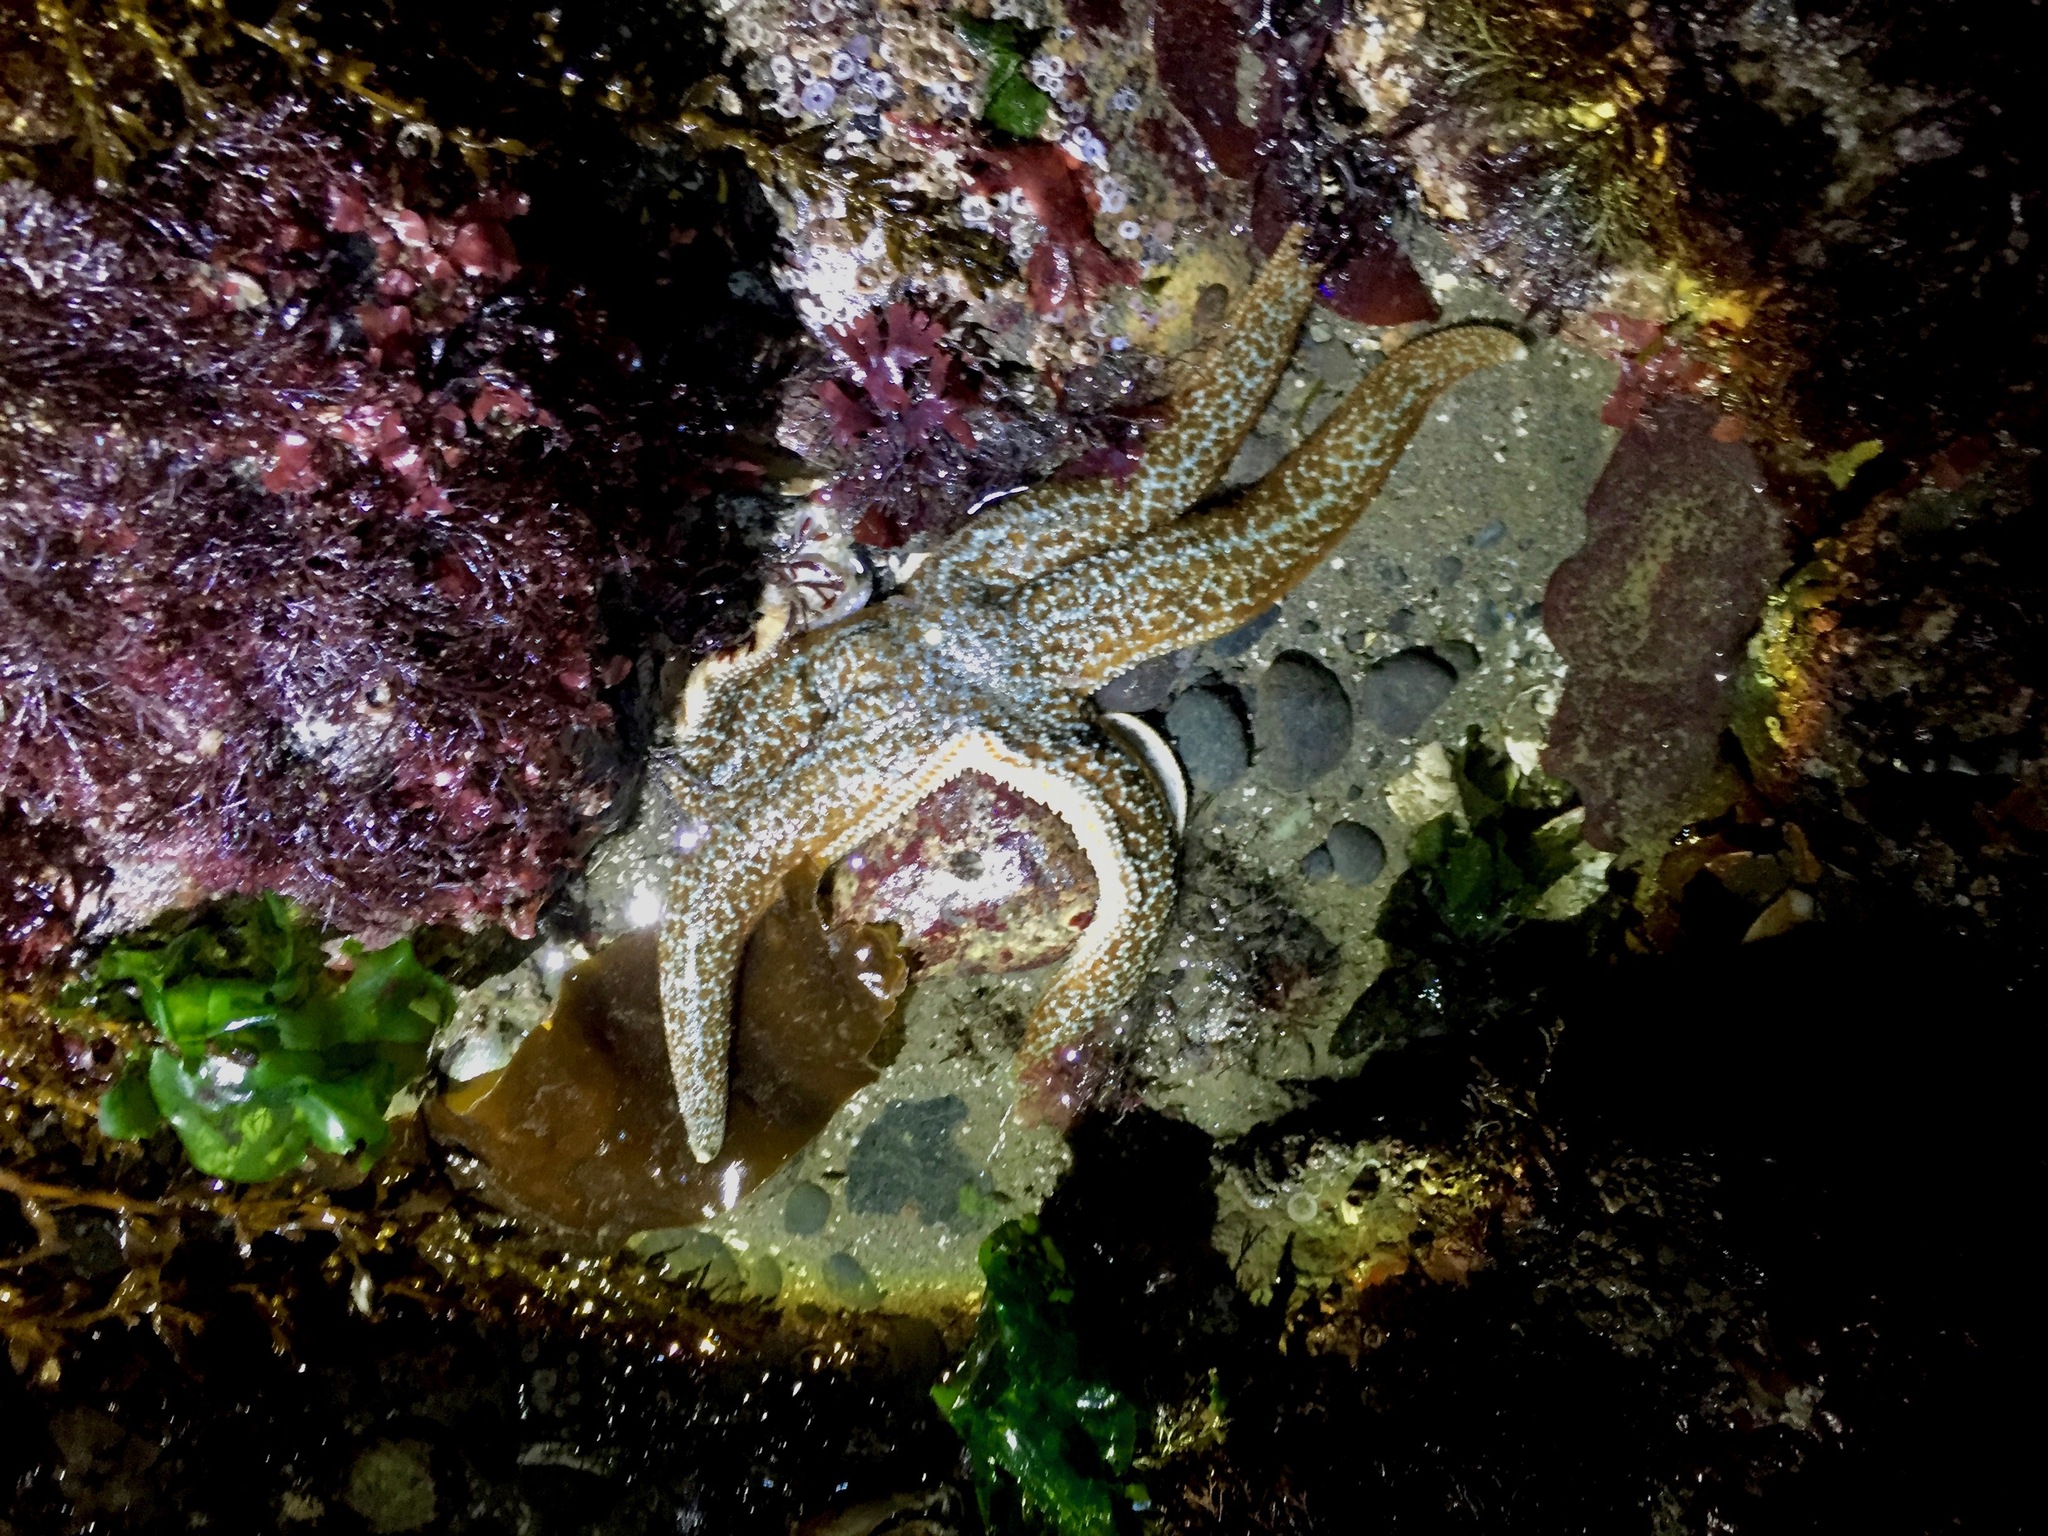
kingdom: Animalia
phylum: Echinodermata
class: Asteroidea
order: Forcipulatida
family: Asteriidae
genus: Evasterias
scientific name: Evasterias troschelii
